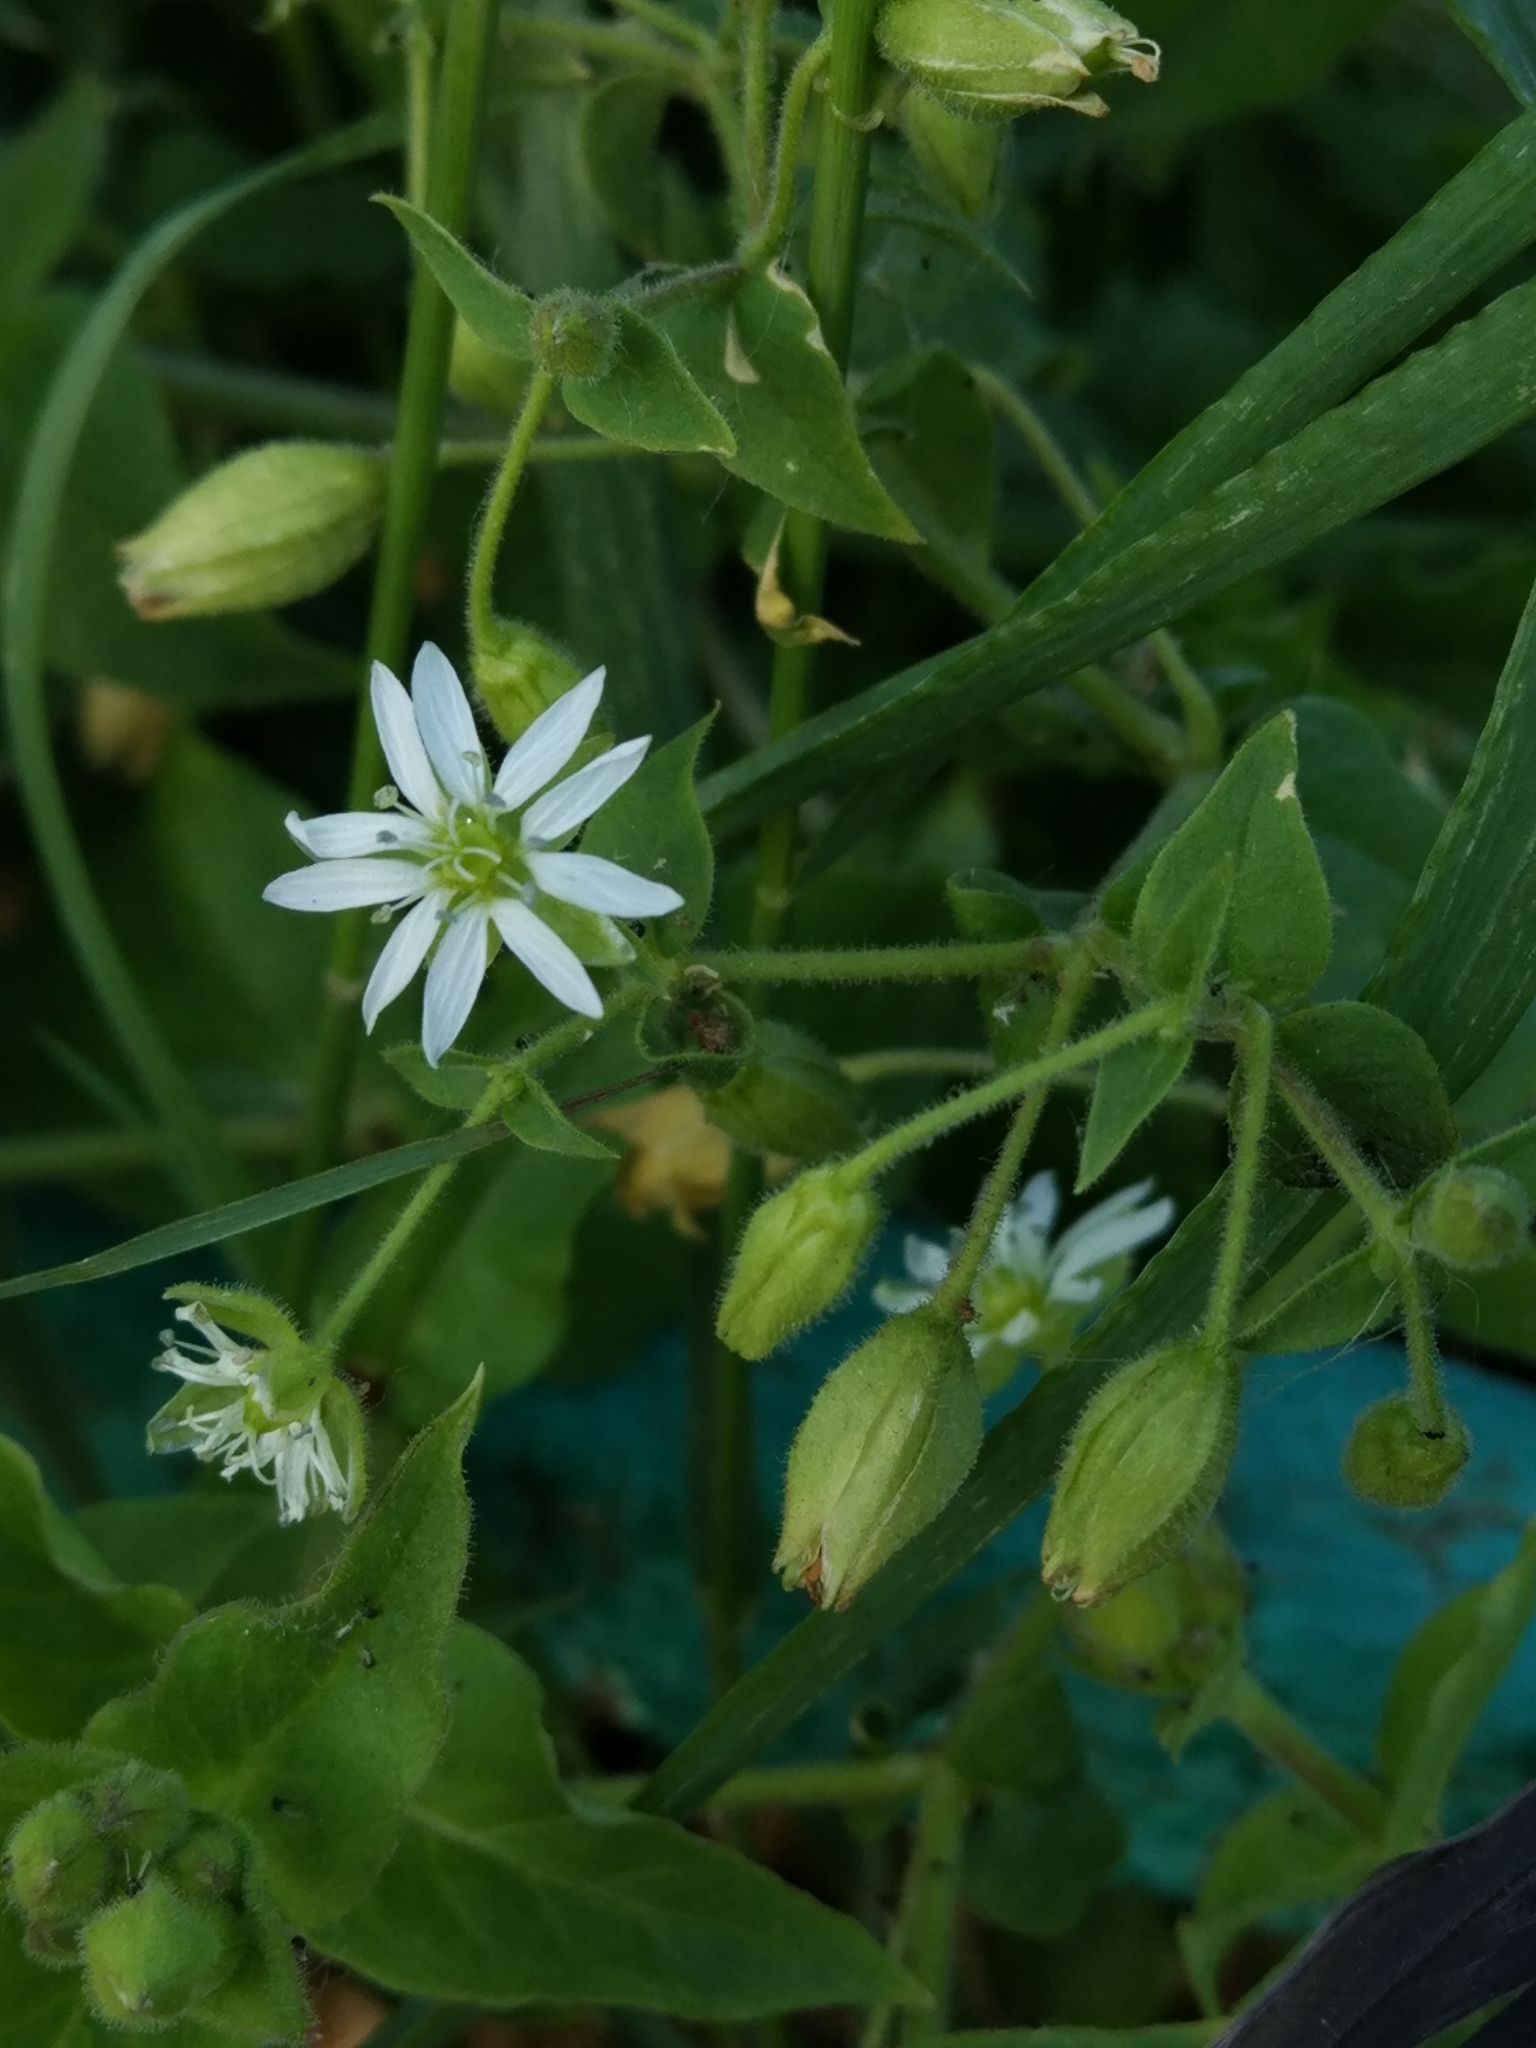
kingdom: Plantae
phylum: Tracheophyta
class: Magnoliopsida
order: Caryophyllales
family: Caryophyllaceae
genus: Stellaria
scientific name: Stellaria aquatica
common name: Water chickweed
